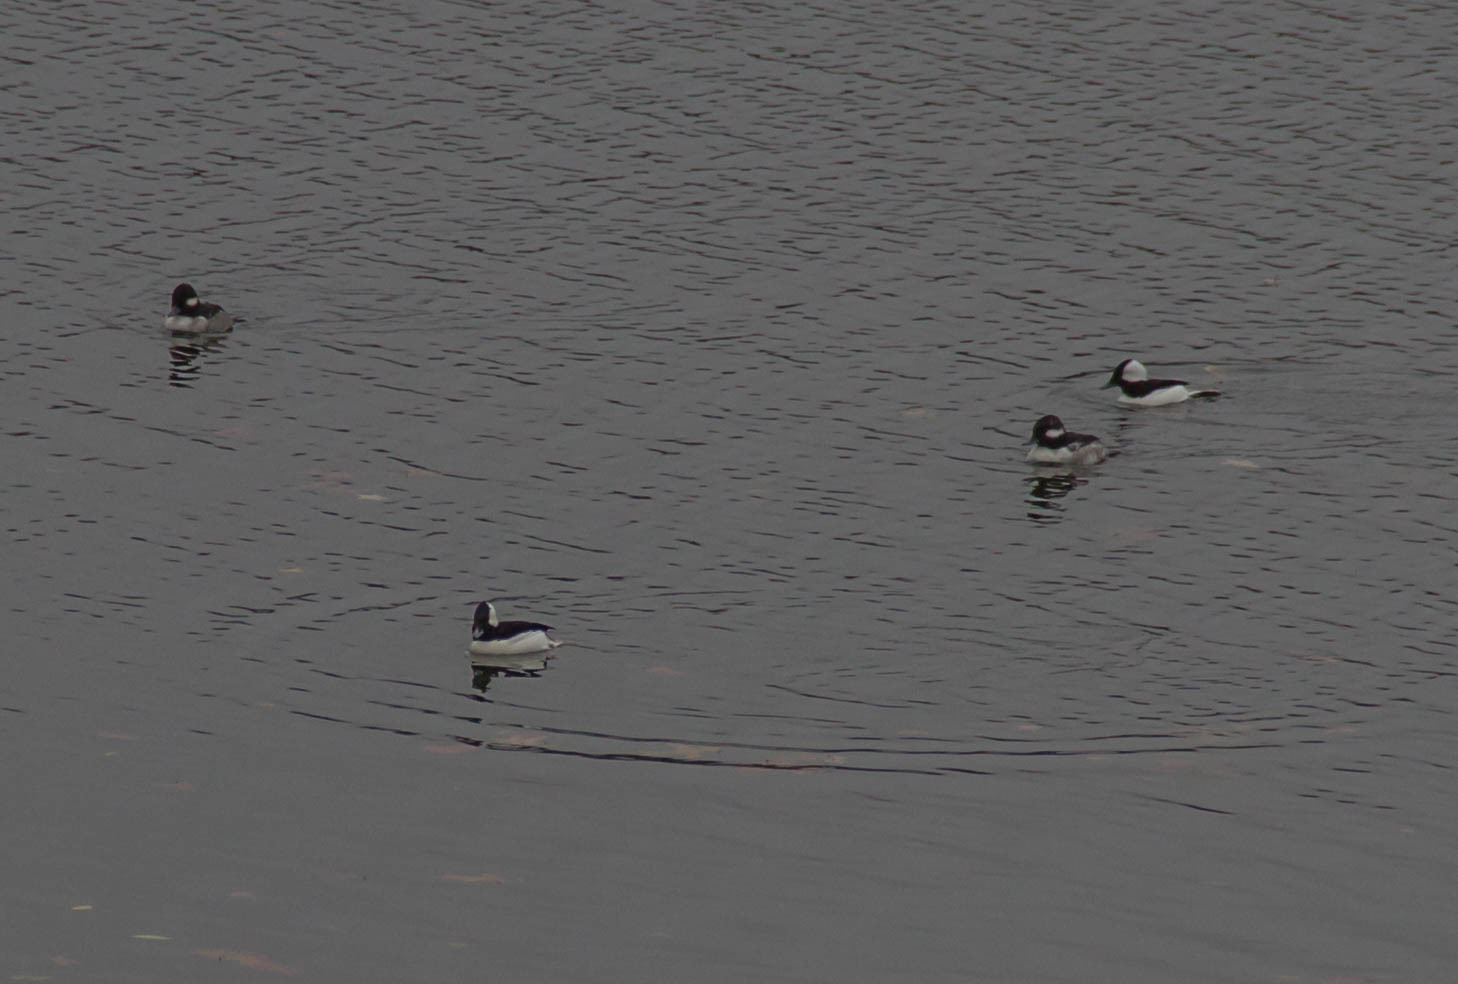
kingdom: Animalia
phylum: Chordata
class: Aves
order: Anseriformes
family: Anatidae
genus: Bucephala
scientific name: Bucephala albeola
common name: Bufflehead
